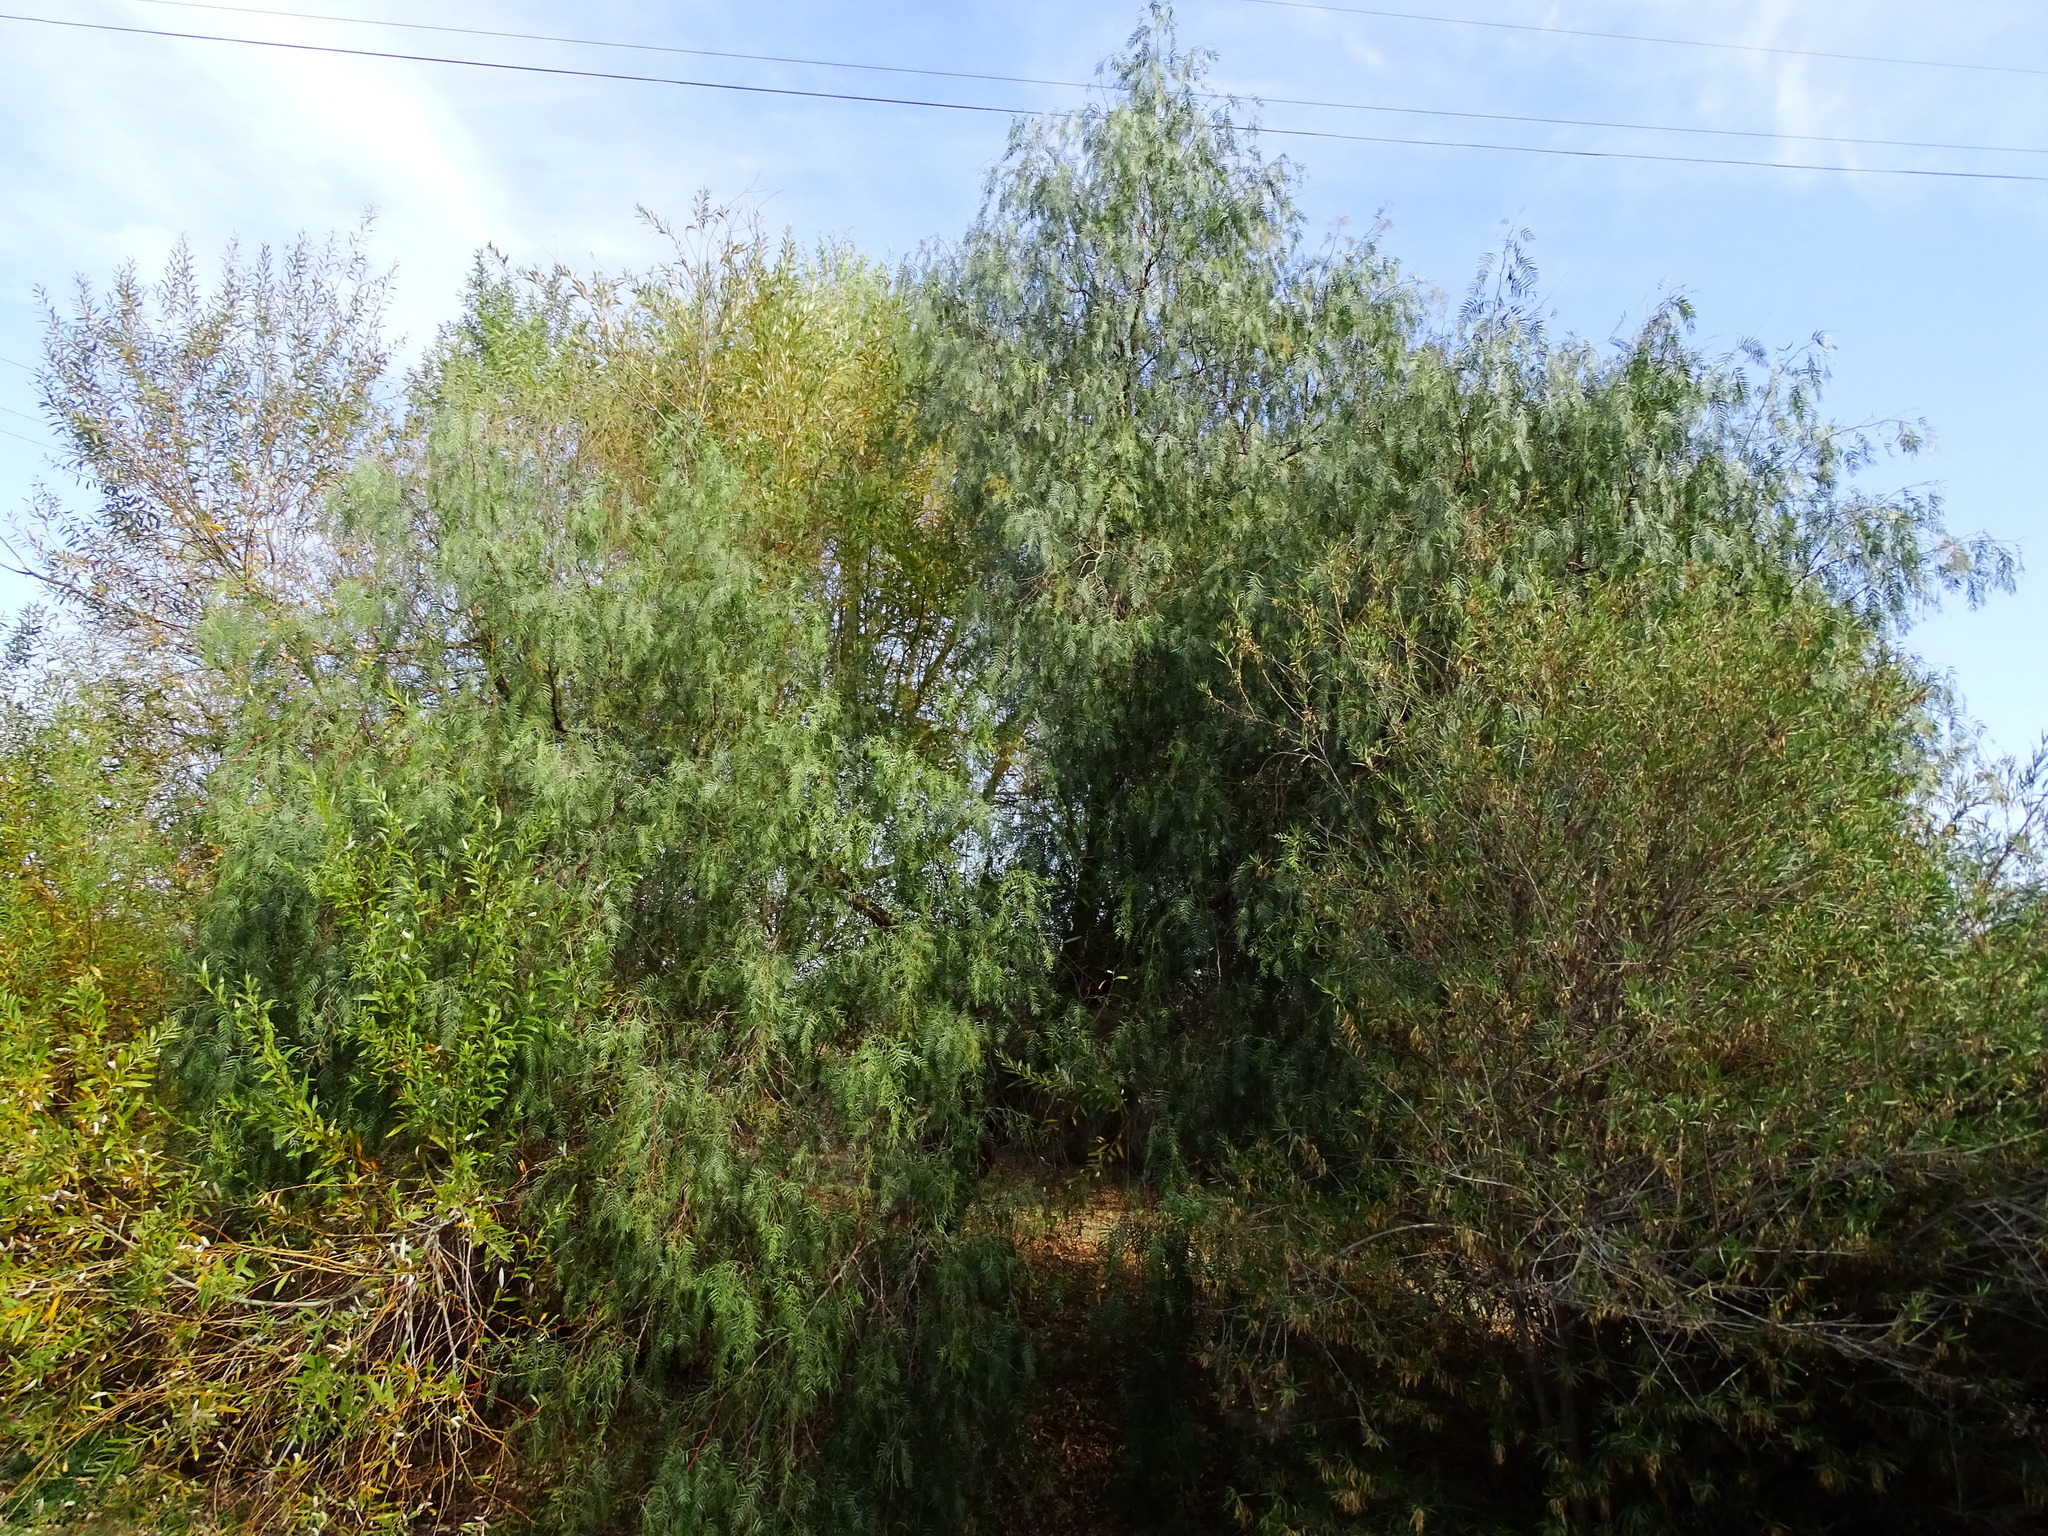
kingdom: Plantae
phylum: Tracheophyta
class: Magnoliopsida
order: Sapindales
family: Anacardiaceae
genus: Schinus
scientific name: Schinus molle
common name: Peruvian peppertree
